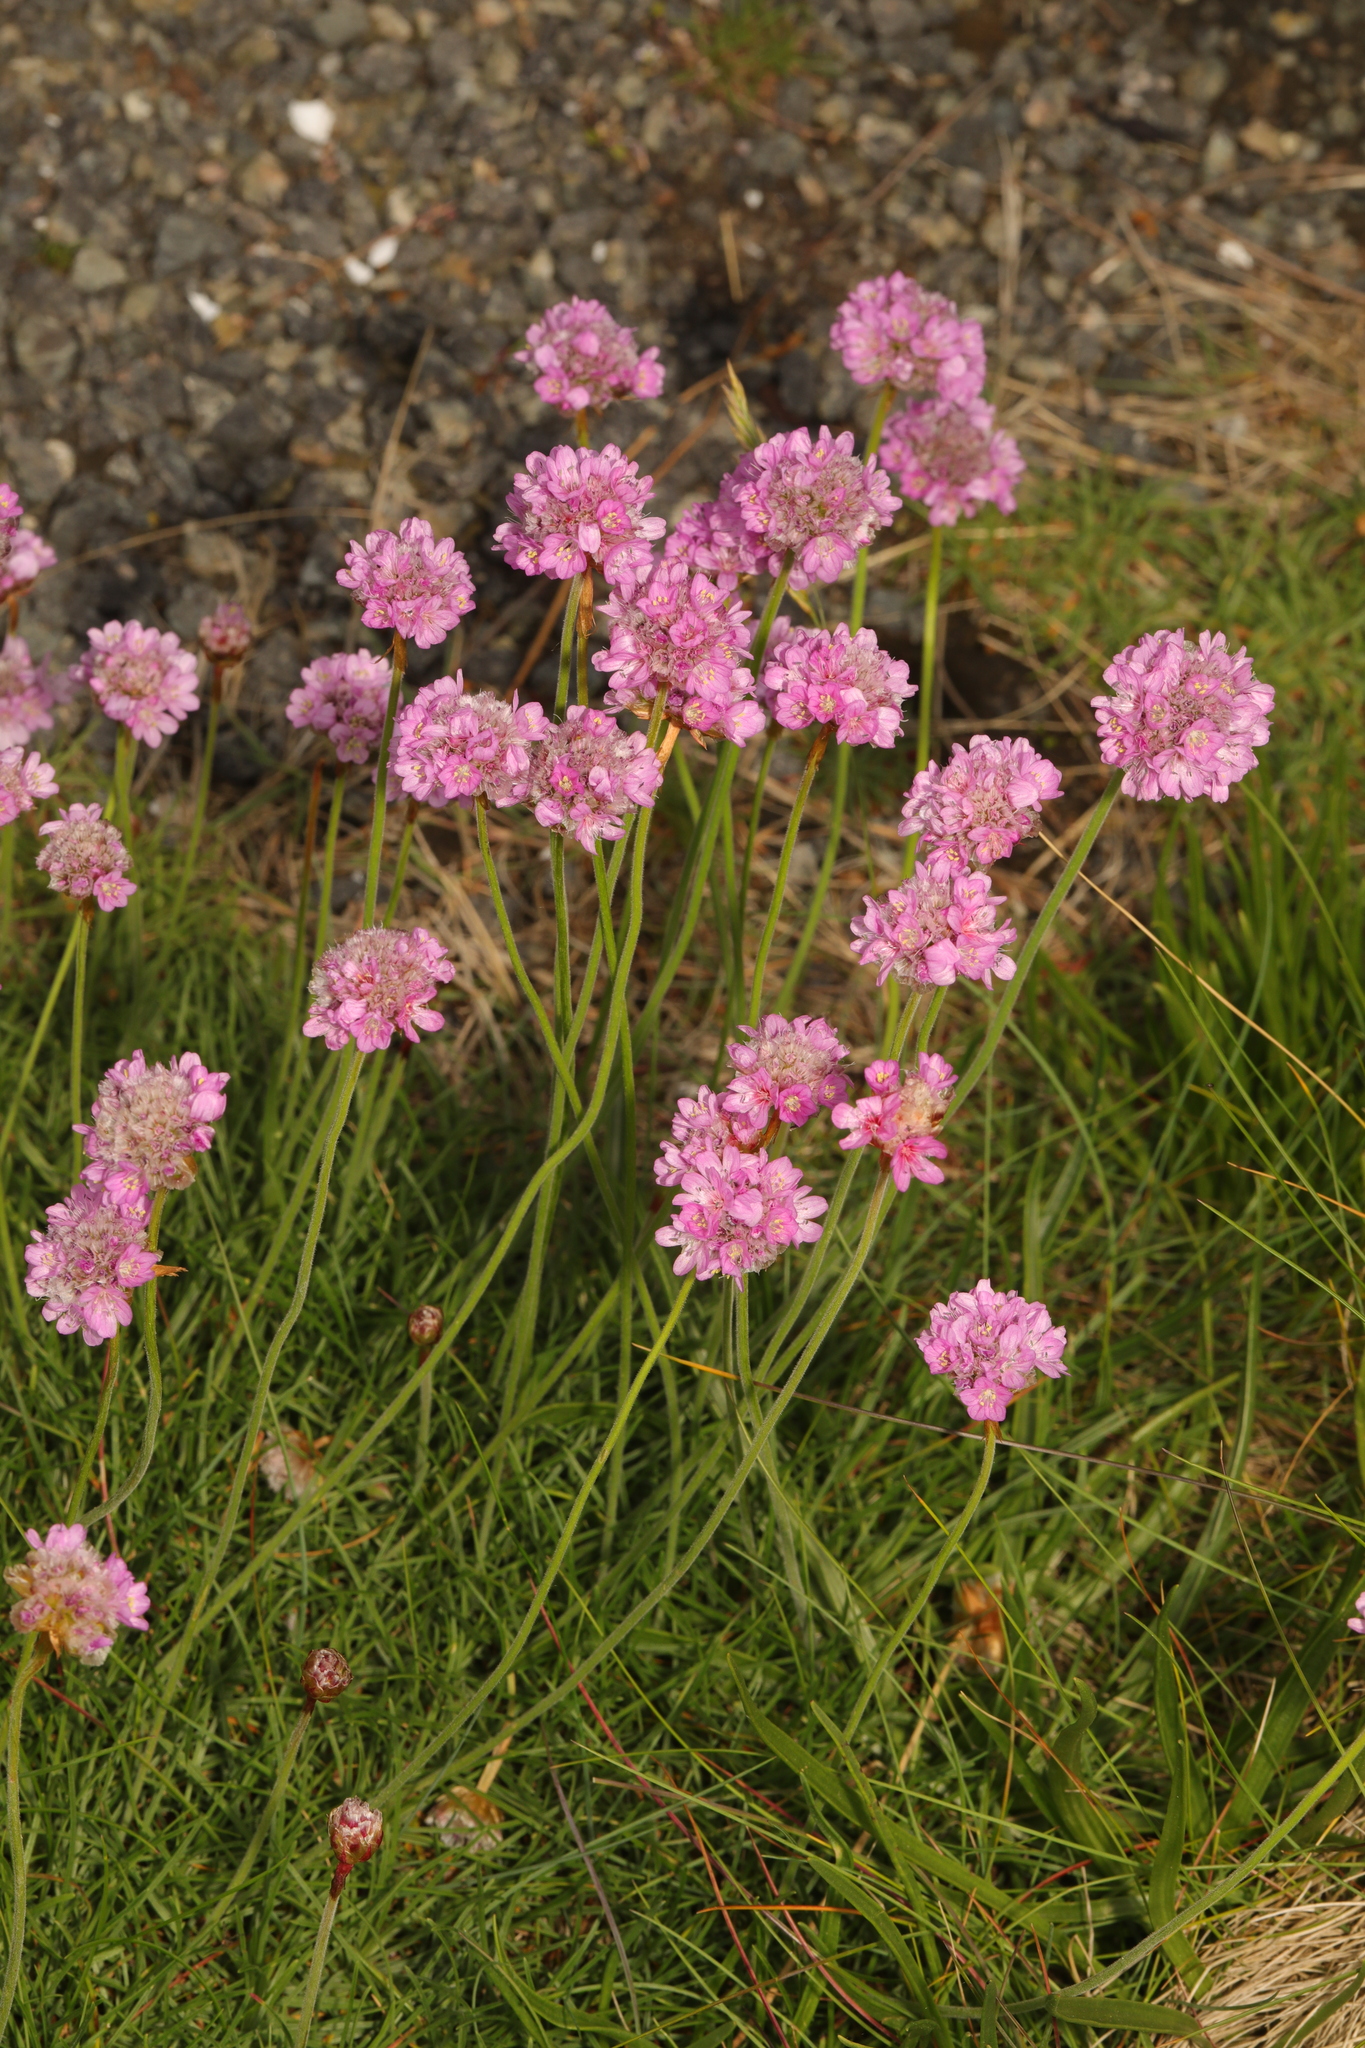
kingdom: Plantae
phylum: Tracheophyta
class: Magnoliopsida
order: Caryophyllales
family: Plumbaginaceae
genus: Armeria
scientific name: Armeria maritima
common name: Thrift
